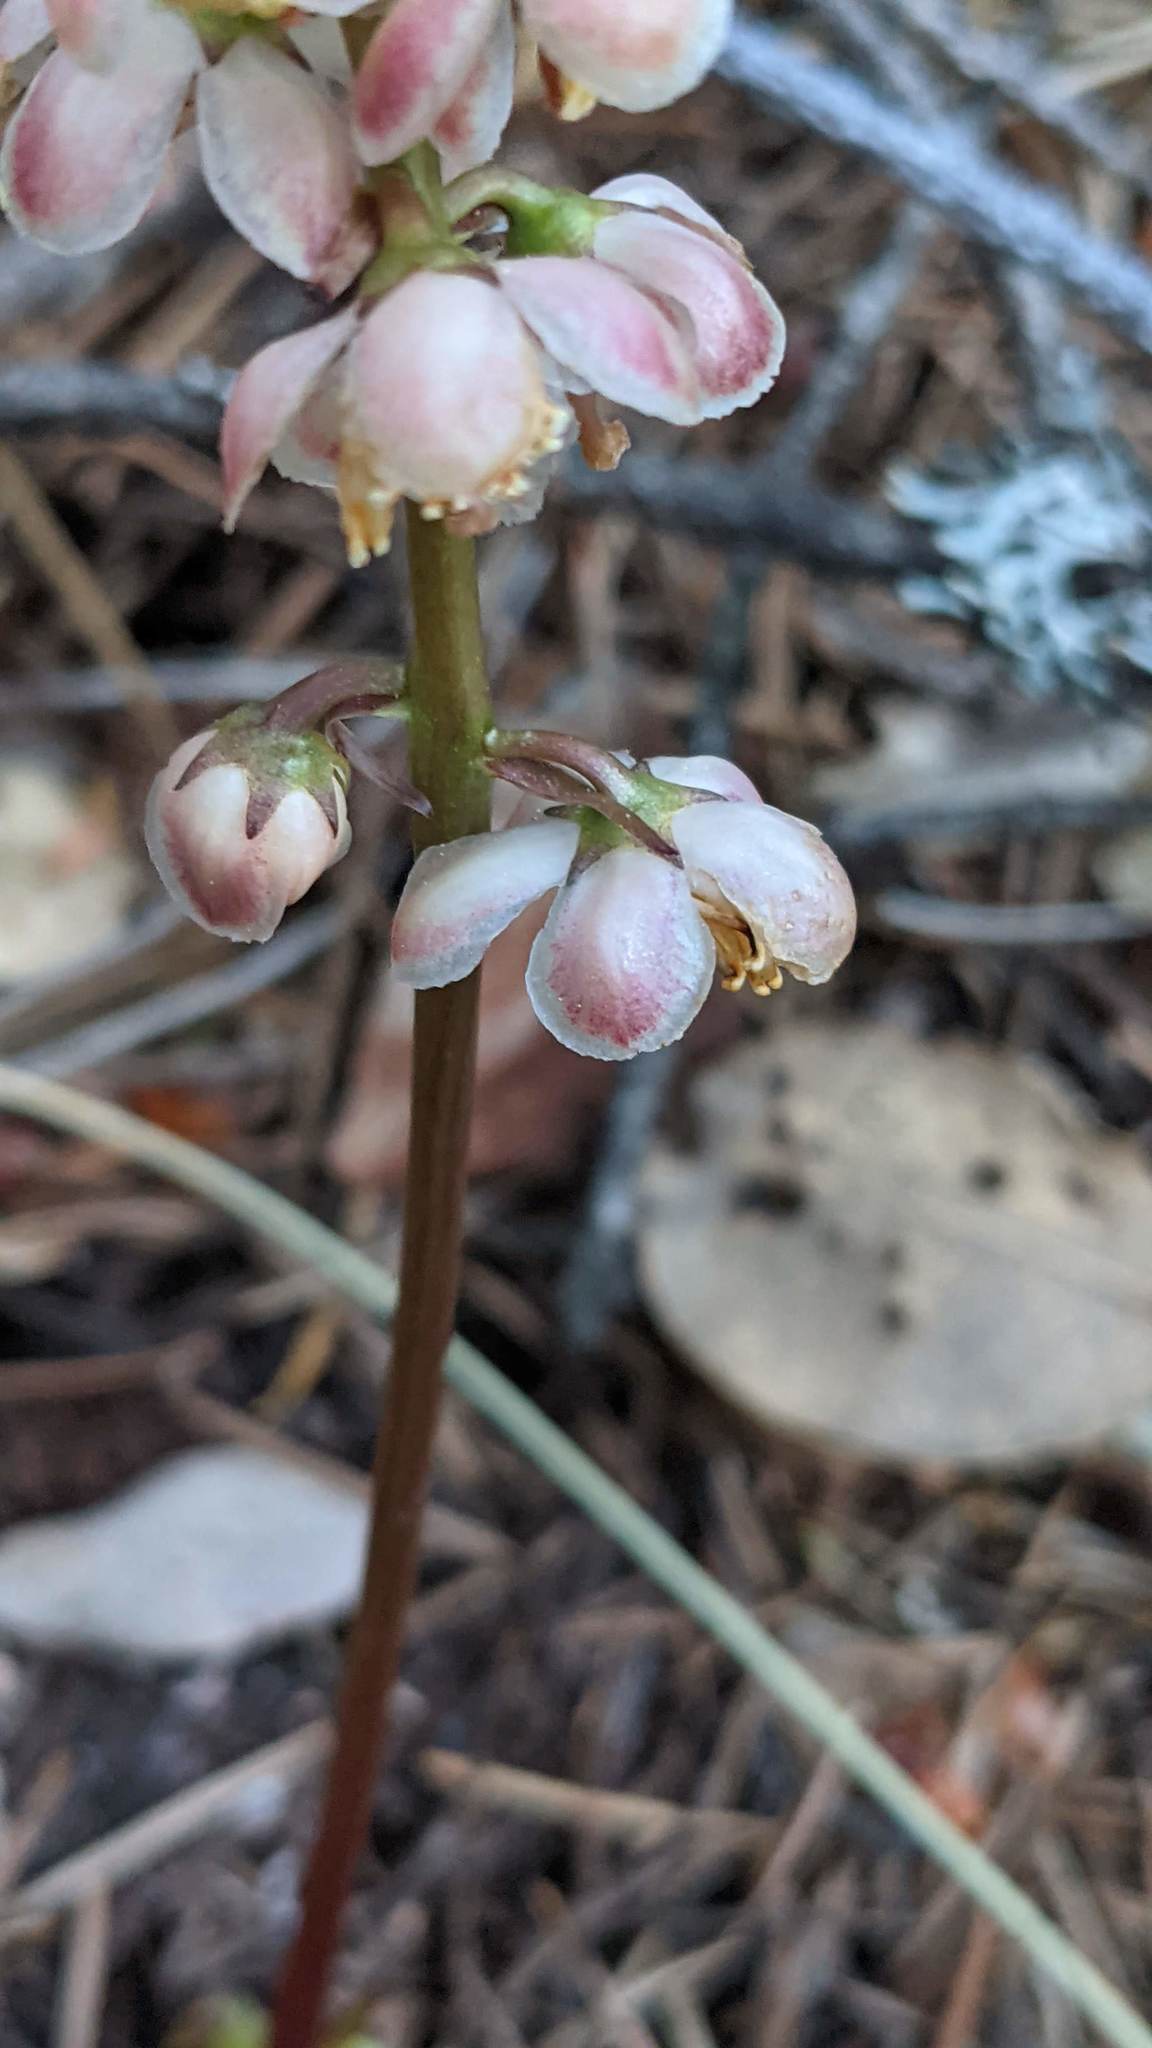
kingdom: Plantae
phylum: Tracheophyta
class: Magnoliopsida
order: Ericales
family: Ericaceae
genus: Pyrola
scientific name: Pyrola aphylla
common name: Leafless wintergreen
